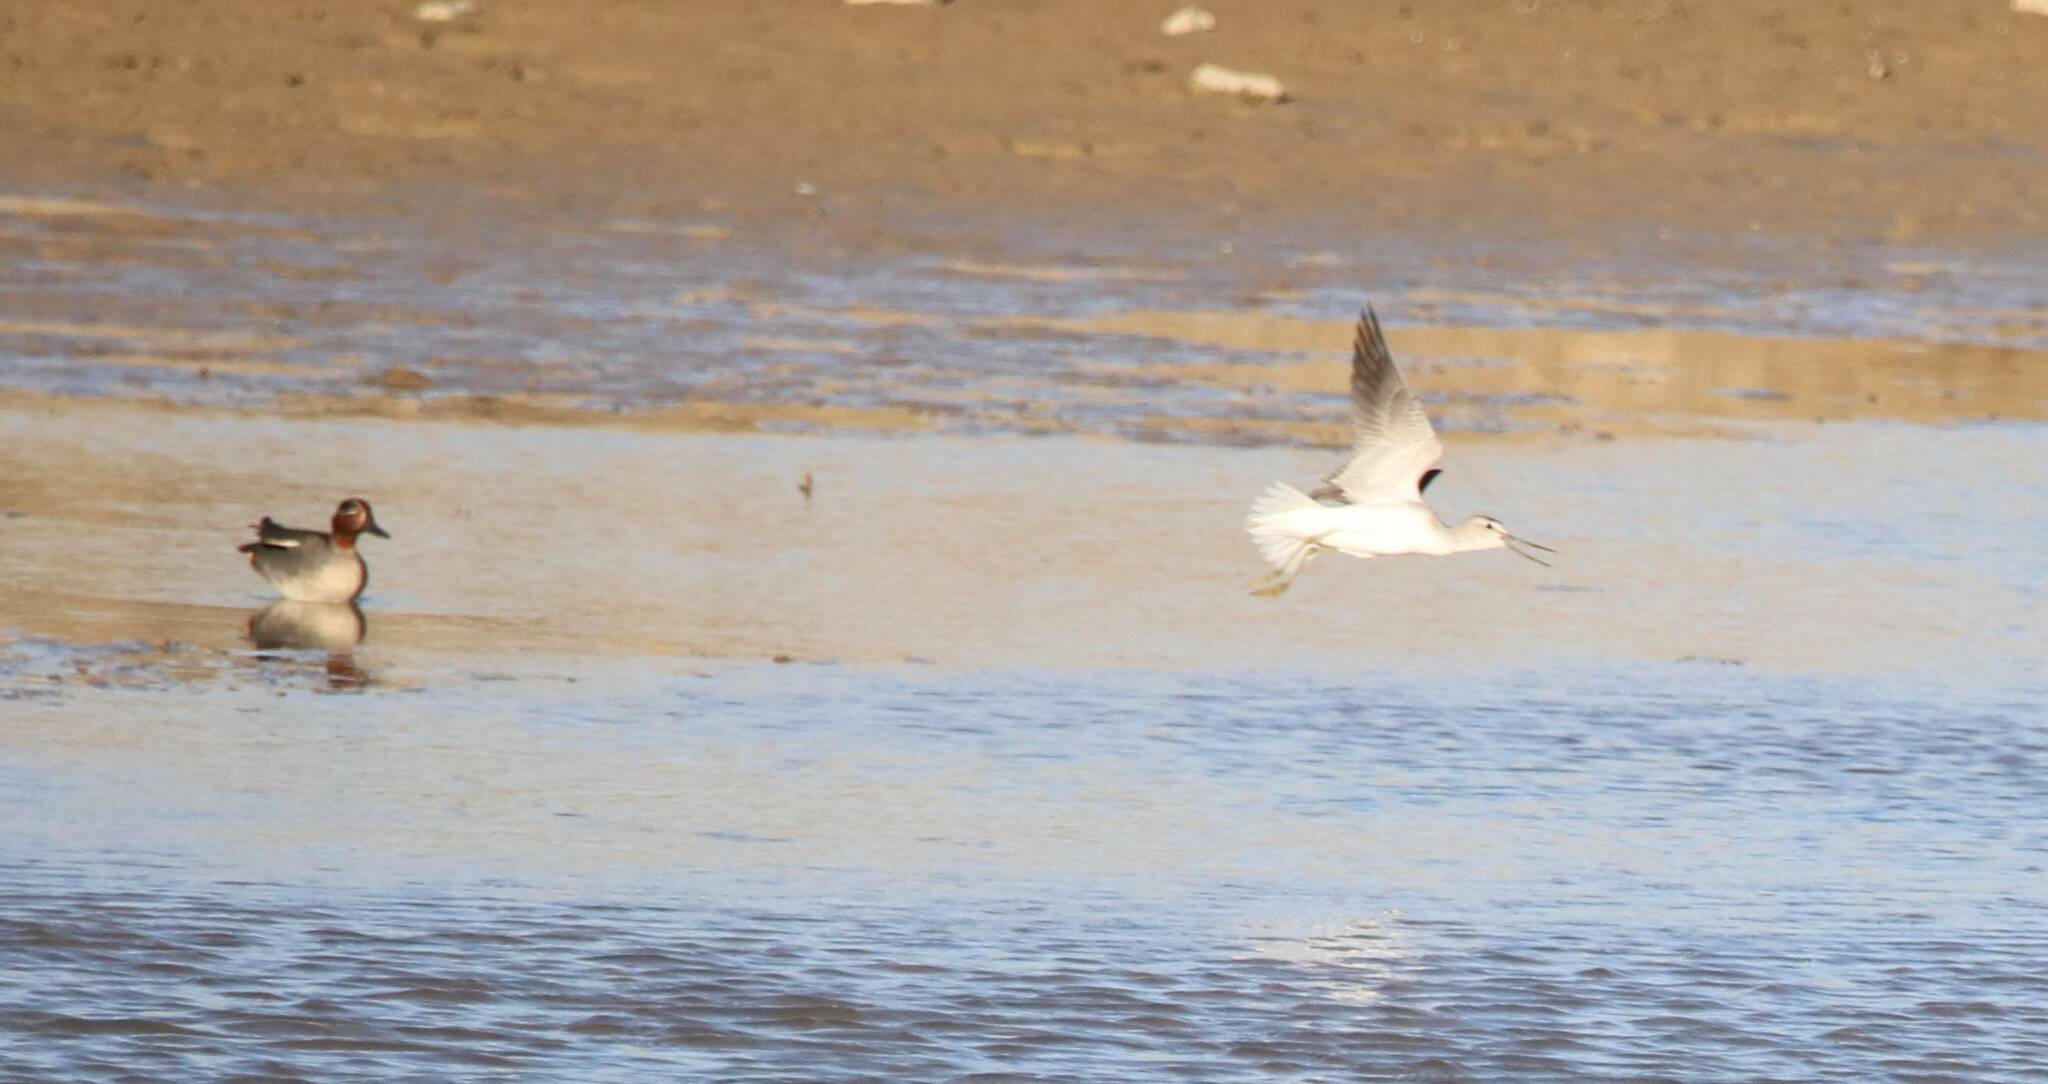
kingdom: Animalia
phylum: Chordata
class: Aves
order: Charadriiformes
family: Scolopacidae
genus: Tringa
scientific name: Tringa nebularia
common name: Common greenshank
